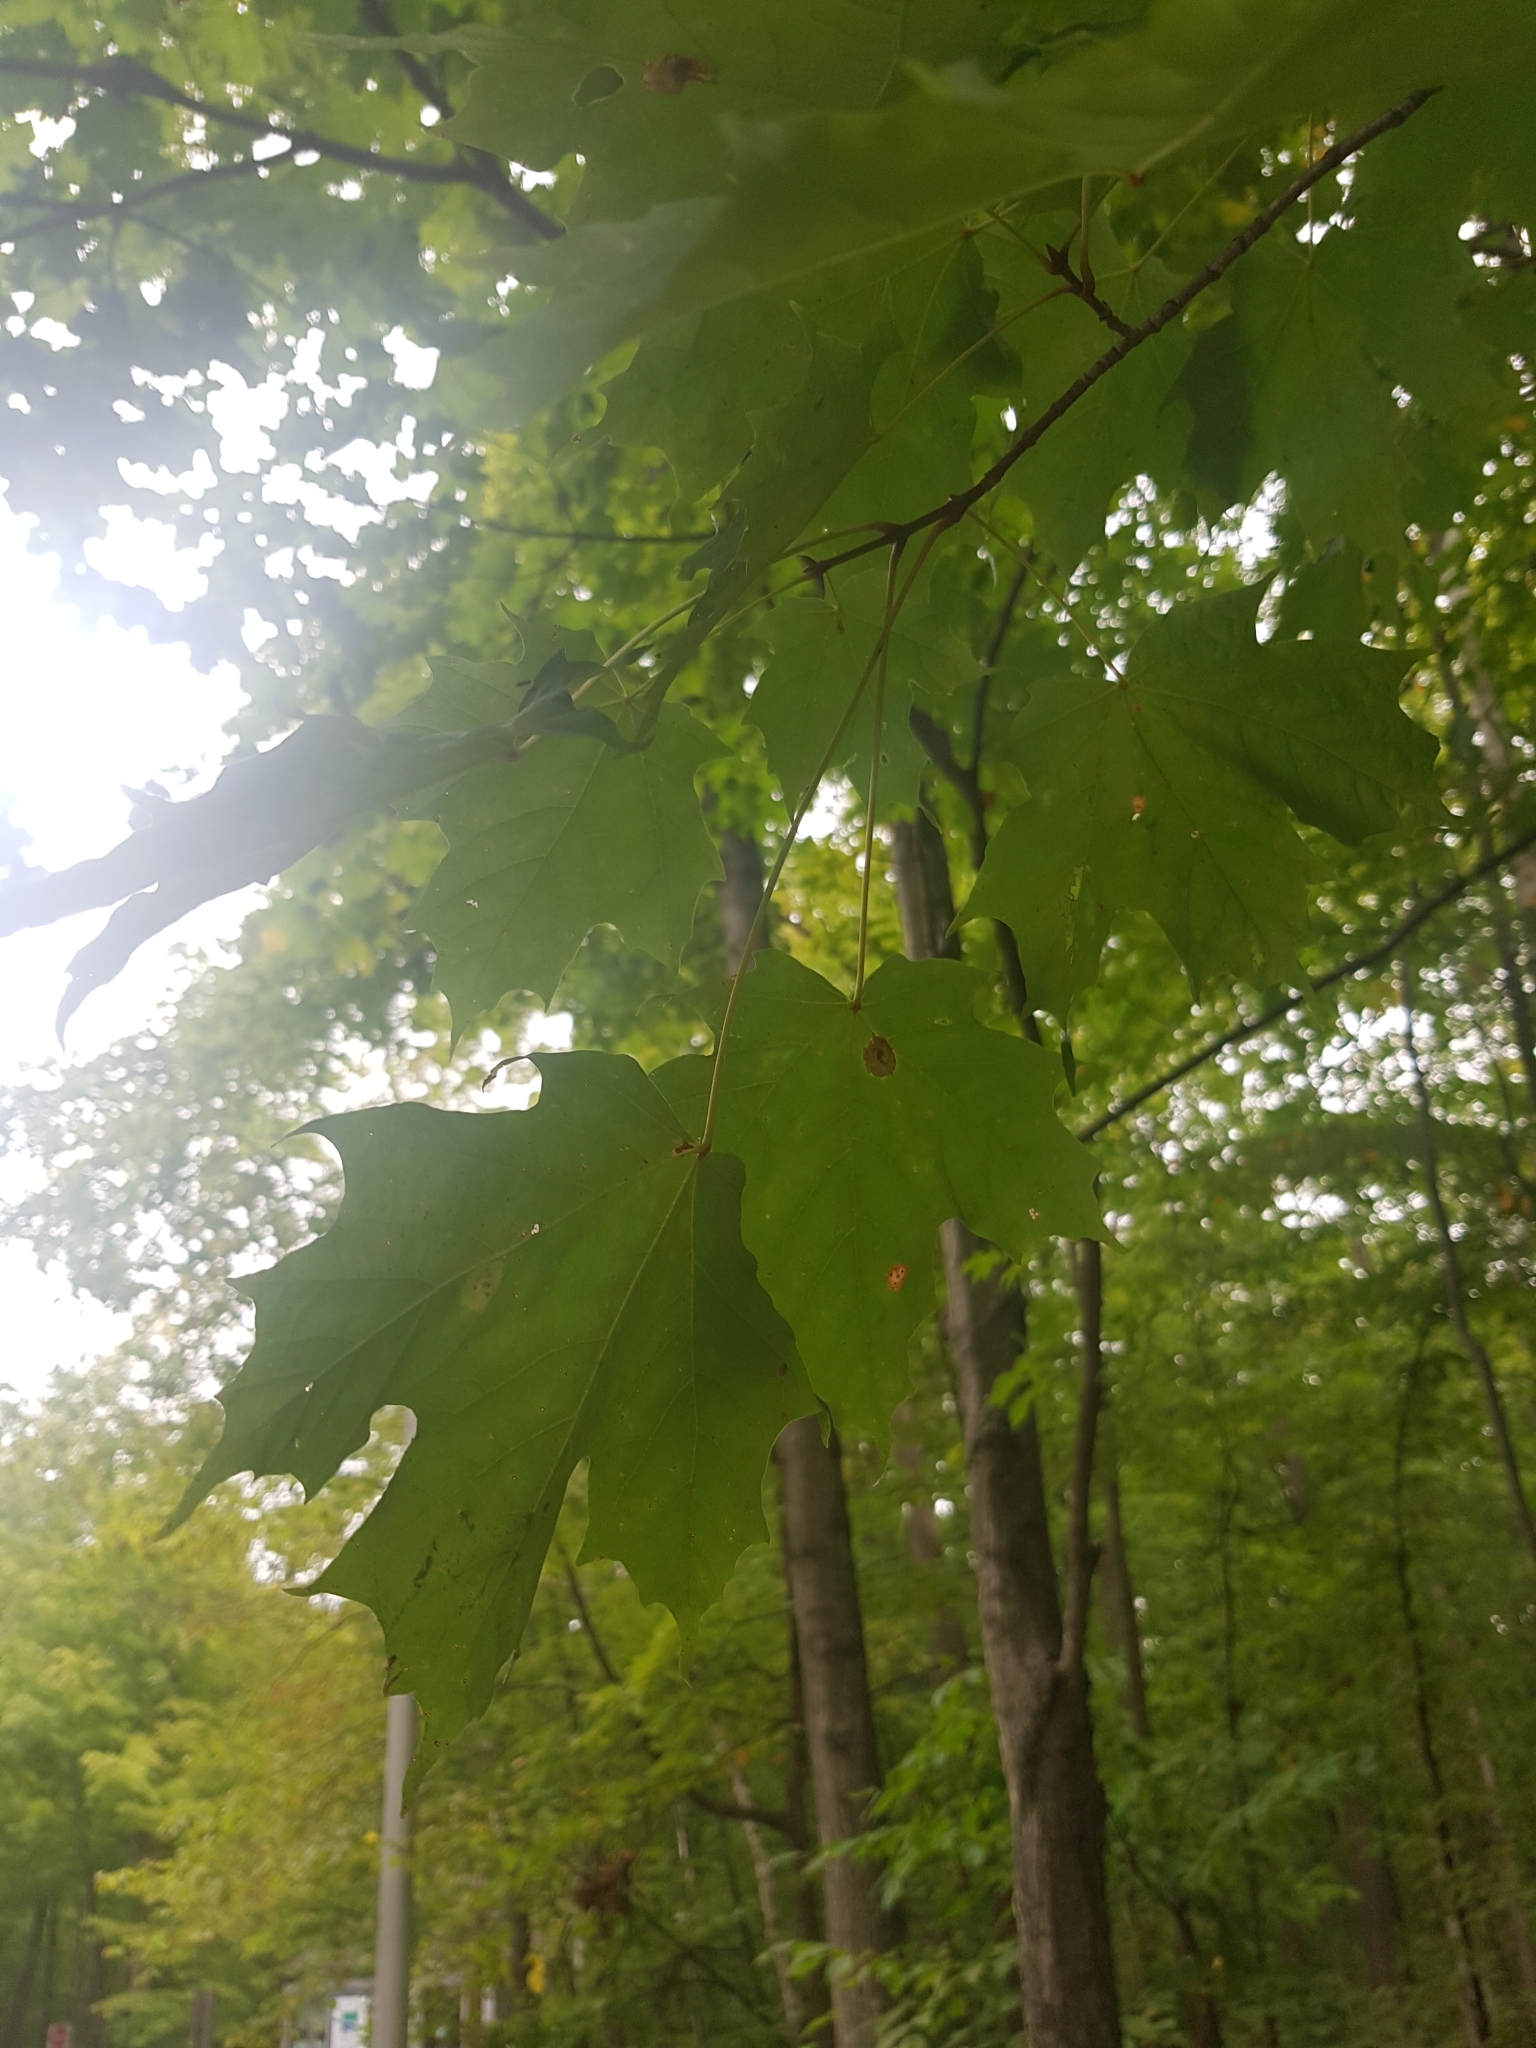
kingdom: Plantae
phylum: Tracheophyta
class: Magnoliopsida
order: Sapindales
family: Sapindaceae
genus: Acer
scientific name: Acer saccharum
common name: Sugar maple
